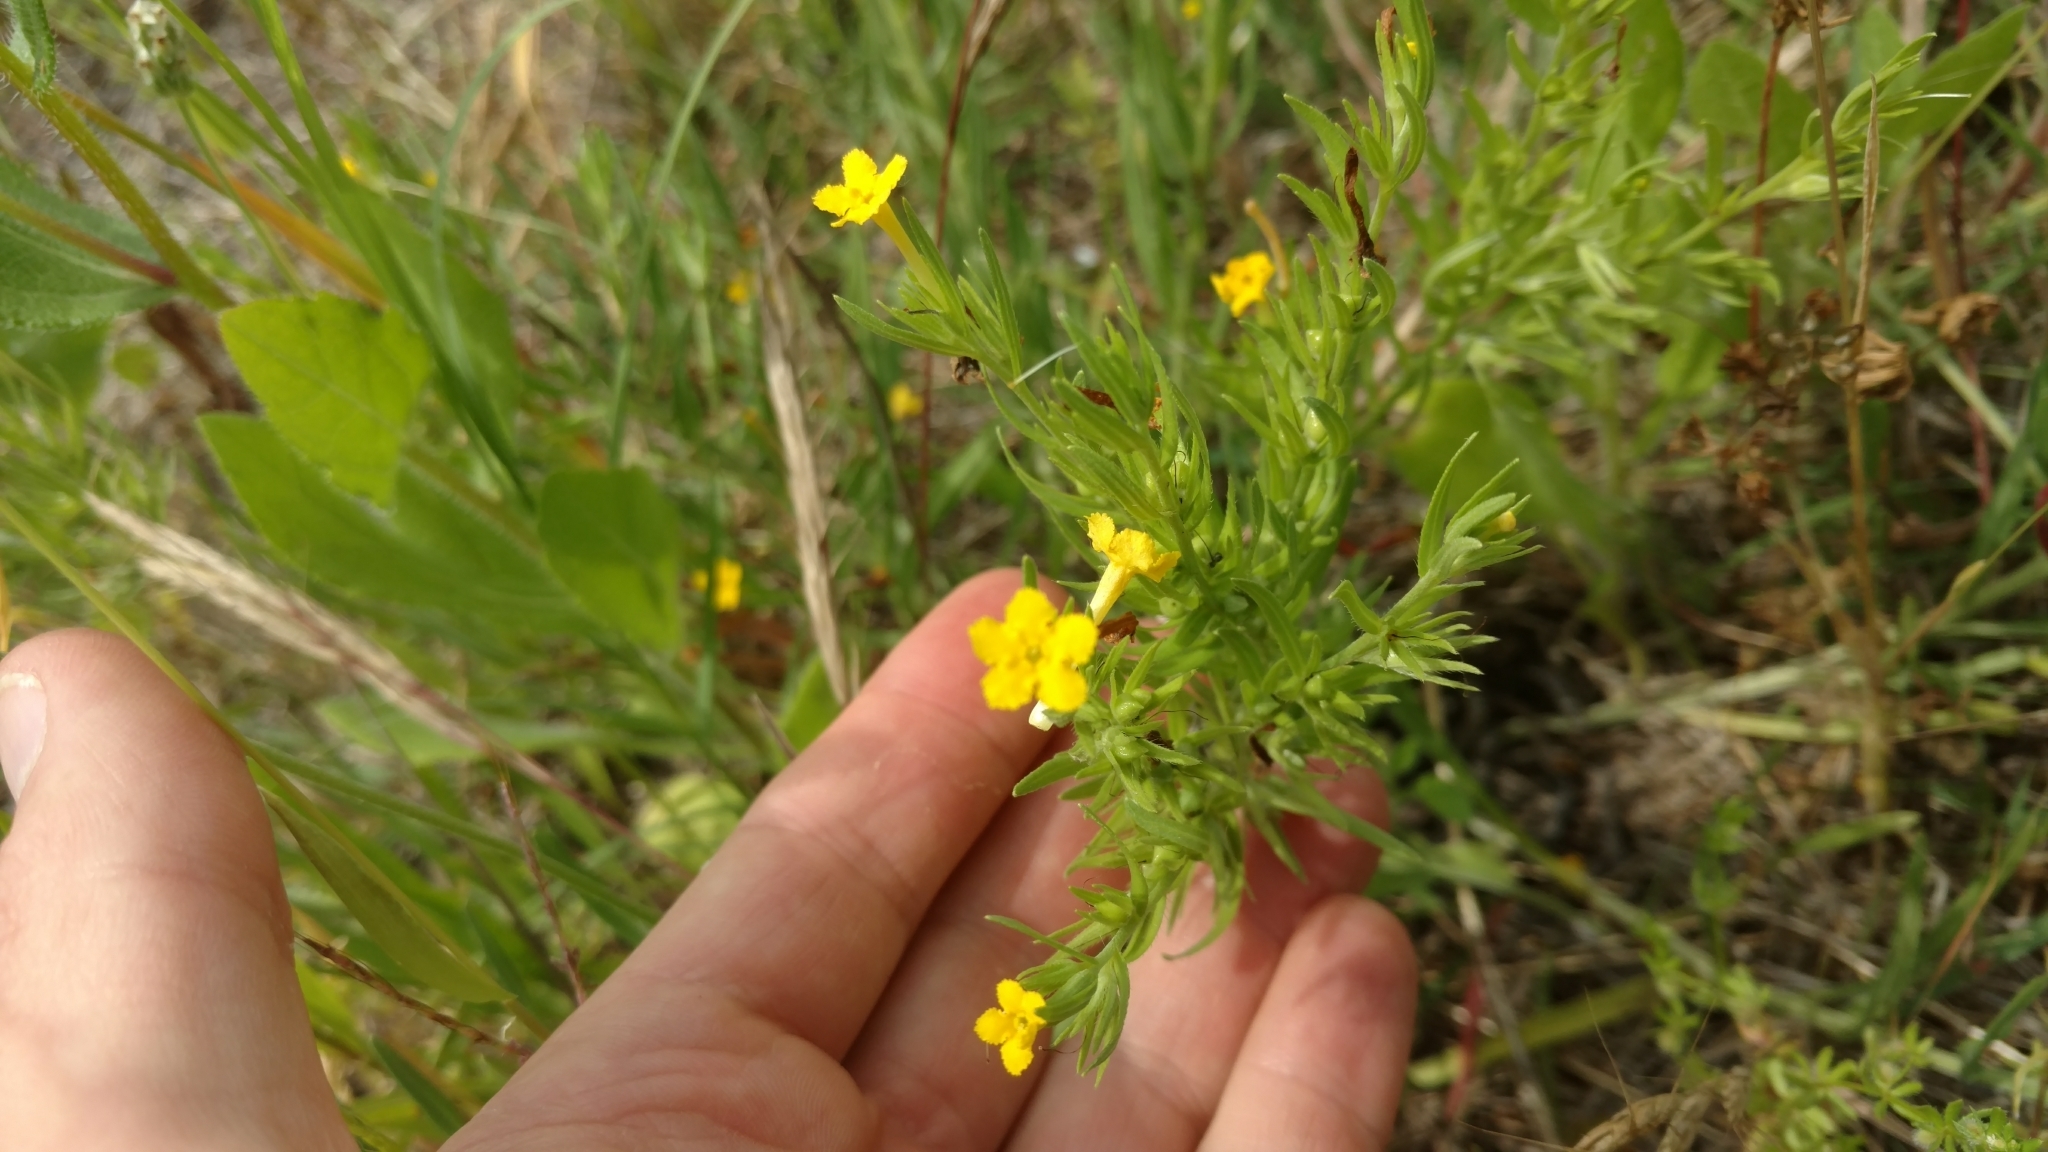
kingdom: Plantae
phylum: Tracheophyta
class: Magnoliopsida
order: Boraginales
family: Boraginaceae
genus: Lithospermum
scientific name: Lithospermum incisum
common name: Fringed gromwell
